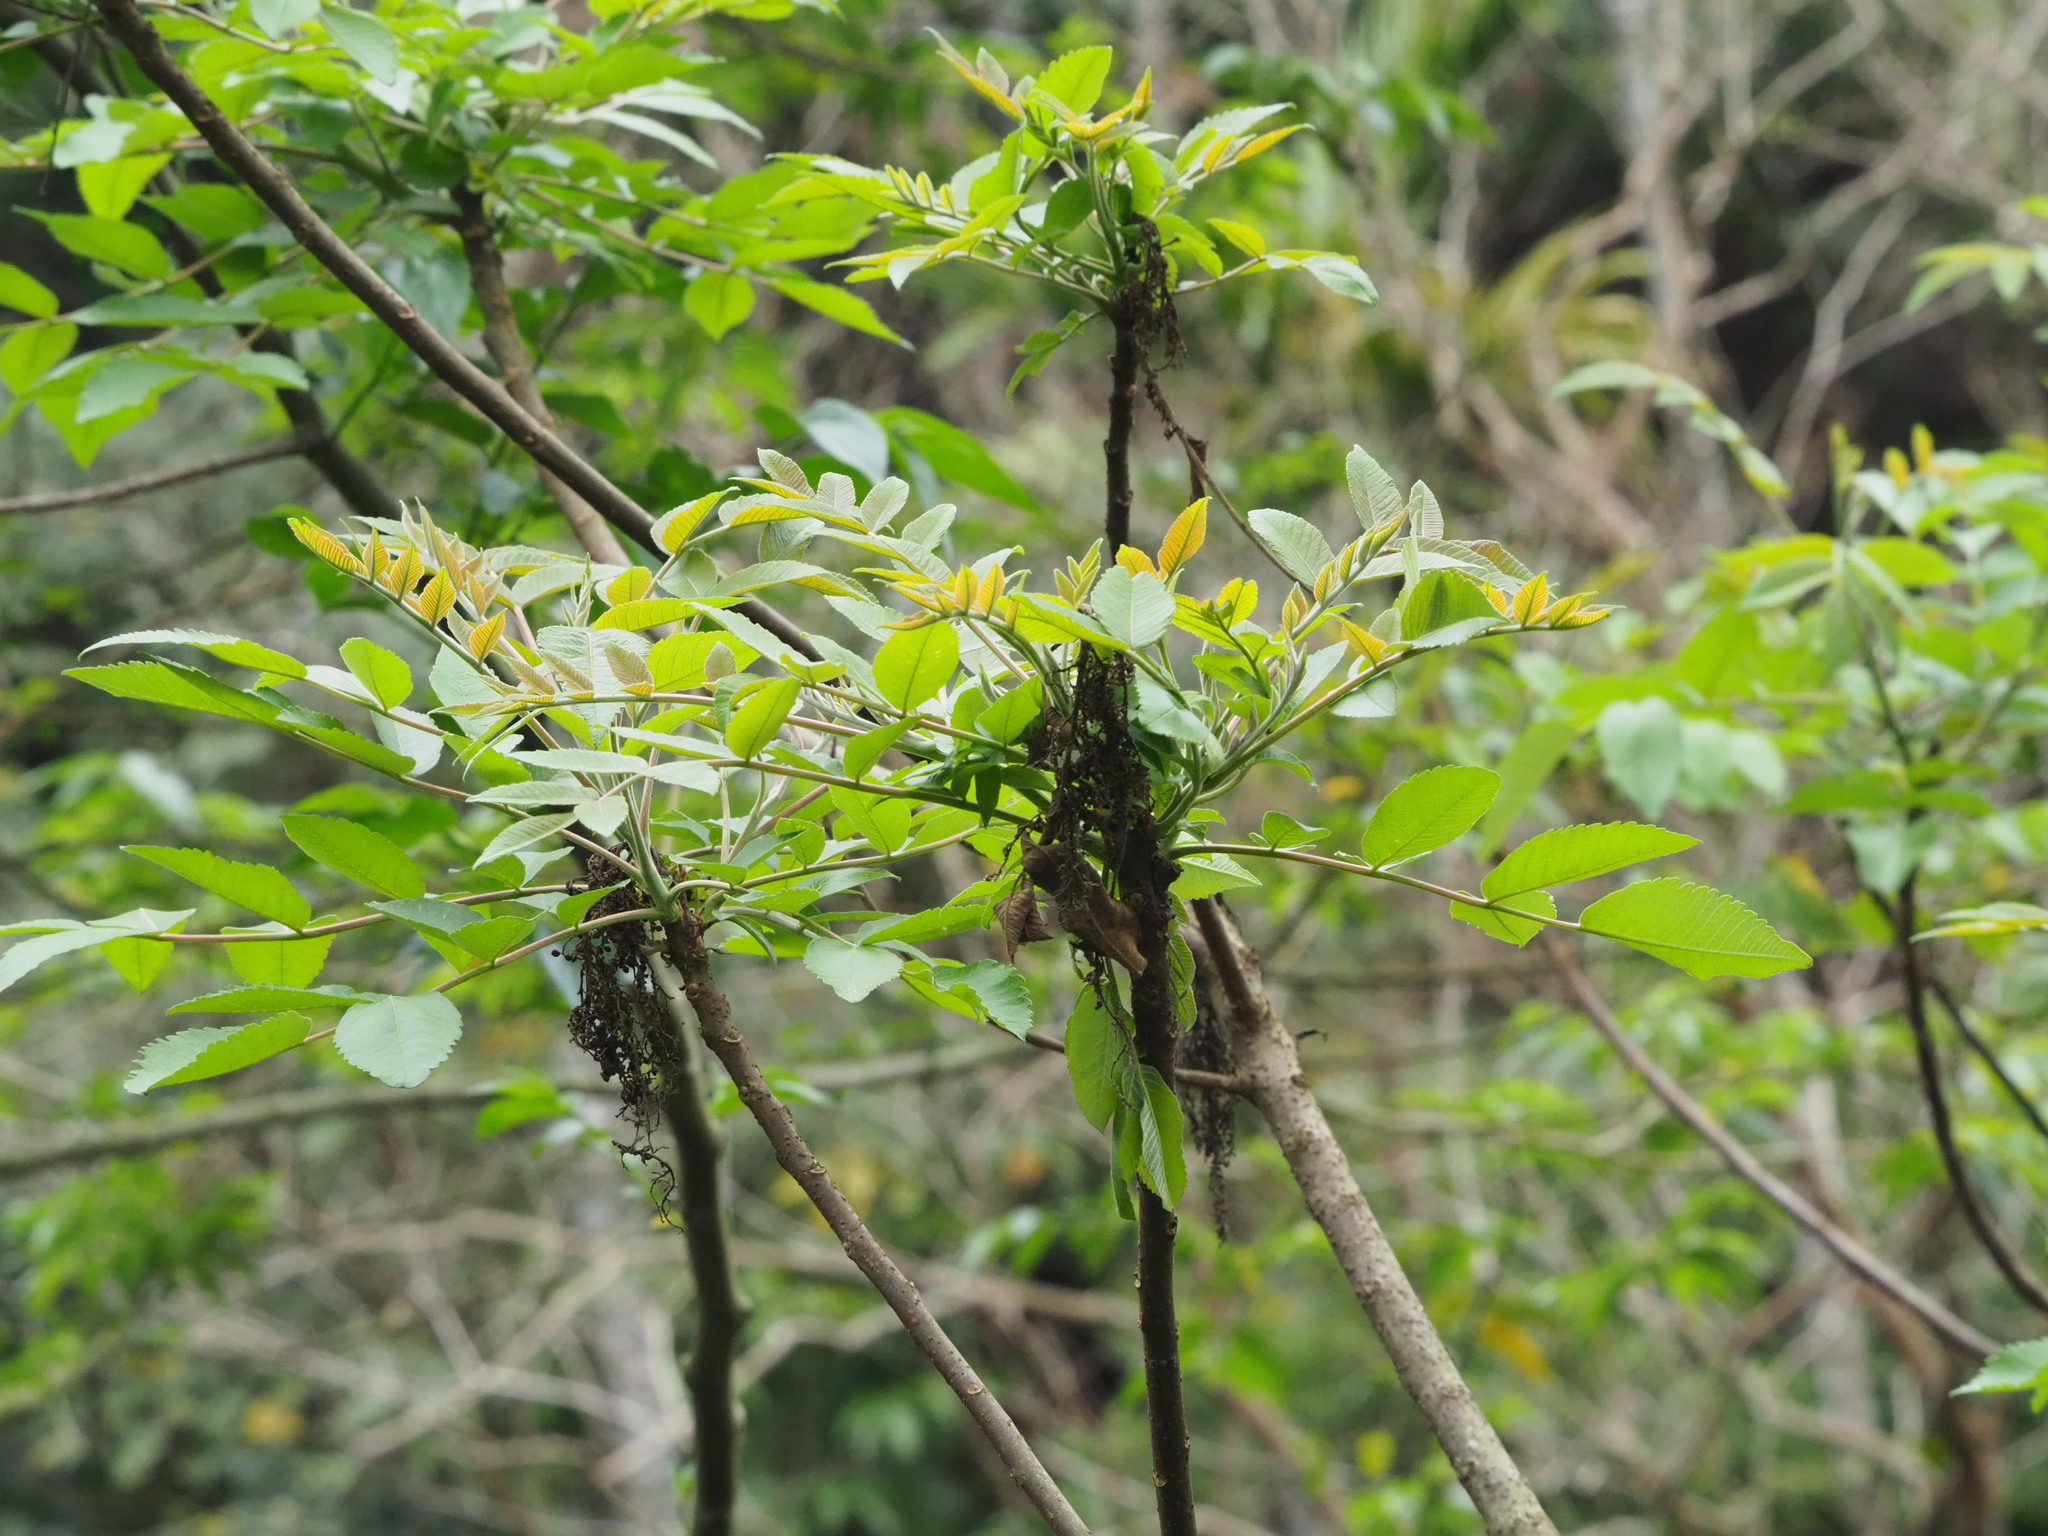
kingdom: Plantae
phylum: Tracheophyta
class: Magnoliopsida
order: Sapindales
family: Anacardiaceae
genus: Rhus
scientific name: Rhus chinensis
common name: Chinese gall
